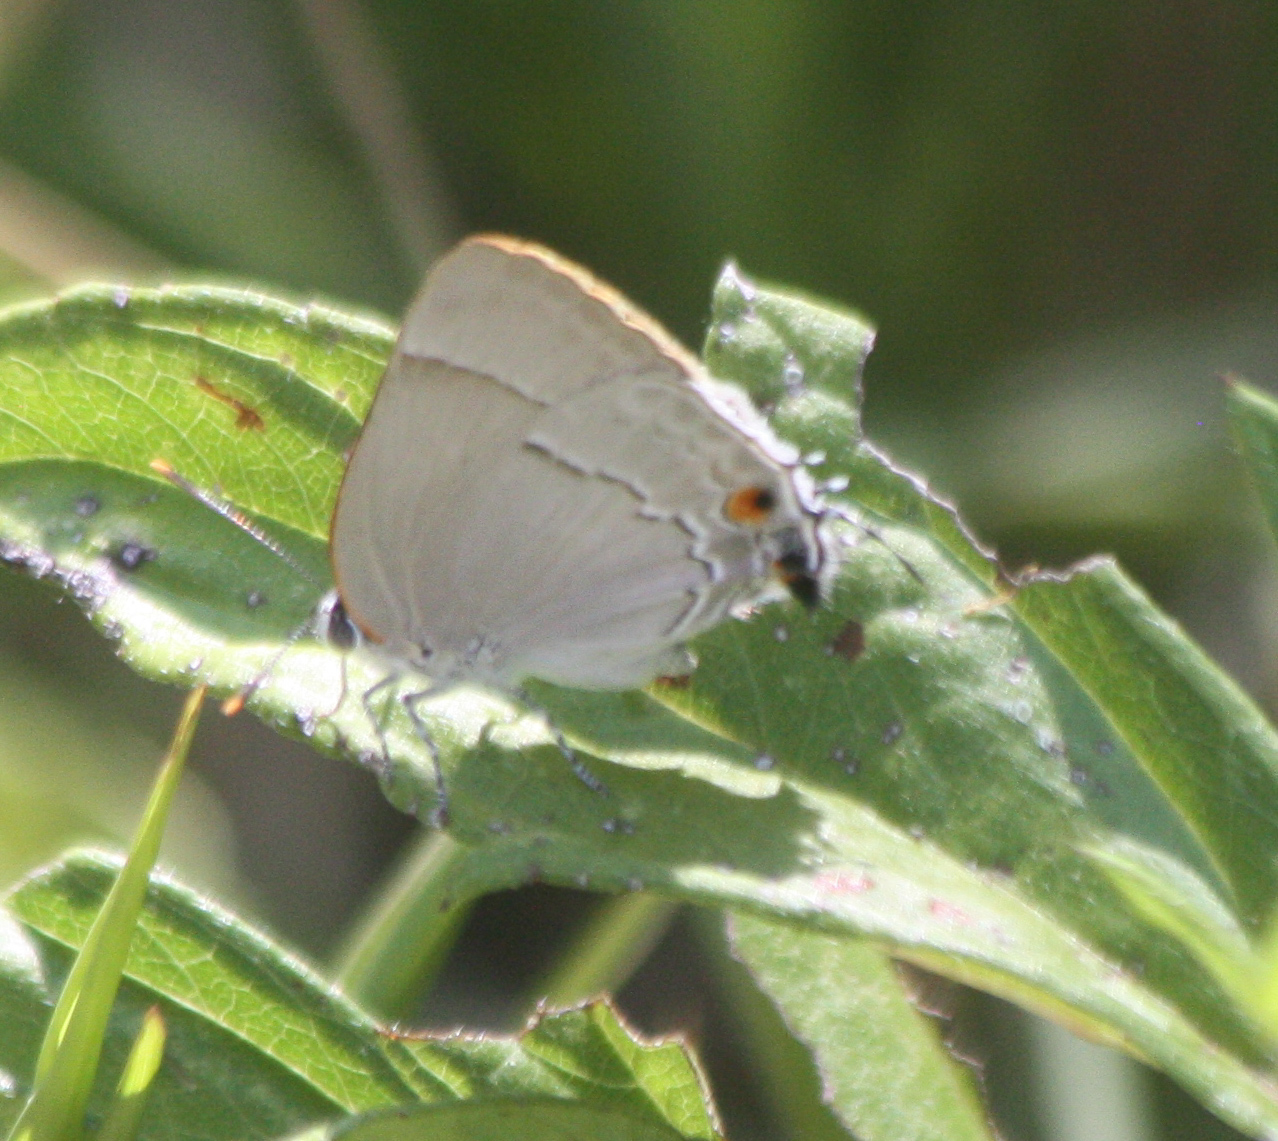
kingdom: Animalia
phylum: Arthropoda
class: Insecta
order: Lepidoptera
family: Lycaenidae
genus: Thecla
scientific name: Thecla marius
